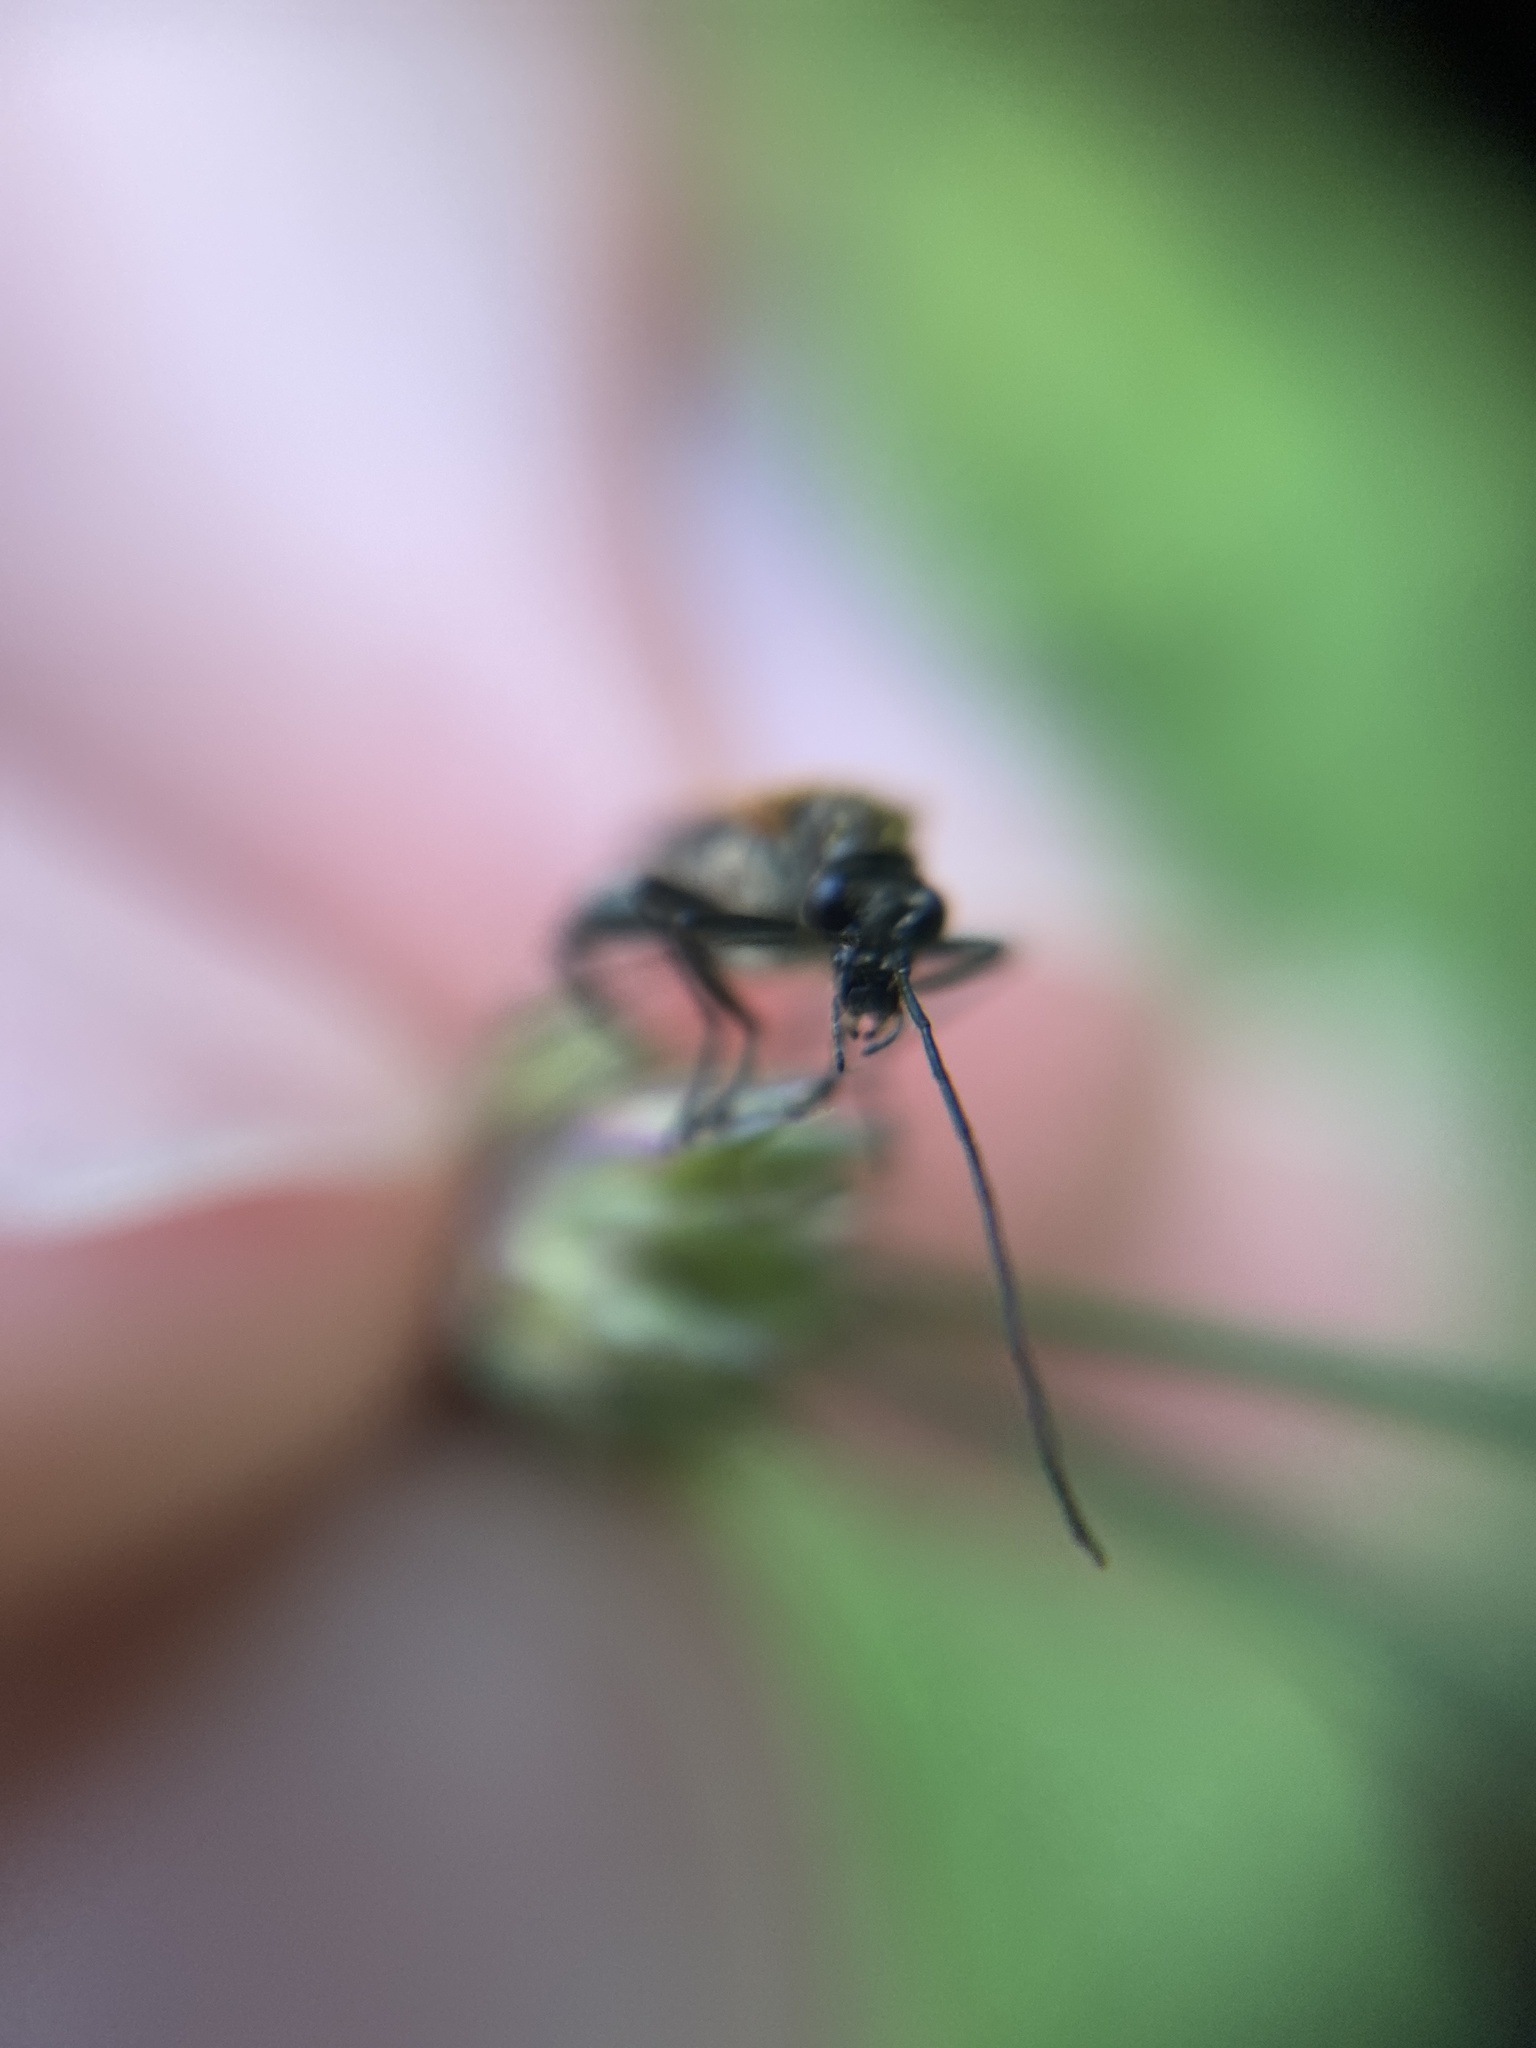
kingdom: Animalia
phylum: Arthropoda
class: Insecta
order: Coleoptera
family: Oedemeridae
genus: Oedemera
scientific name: Oedemera femorata
